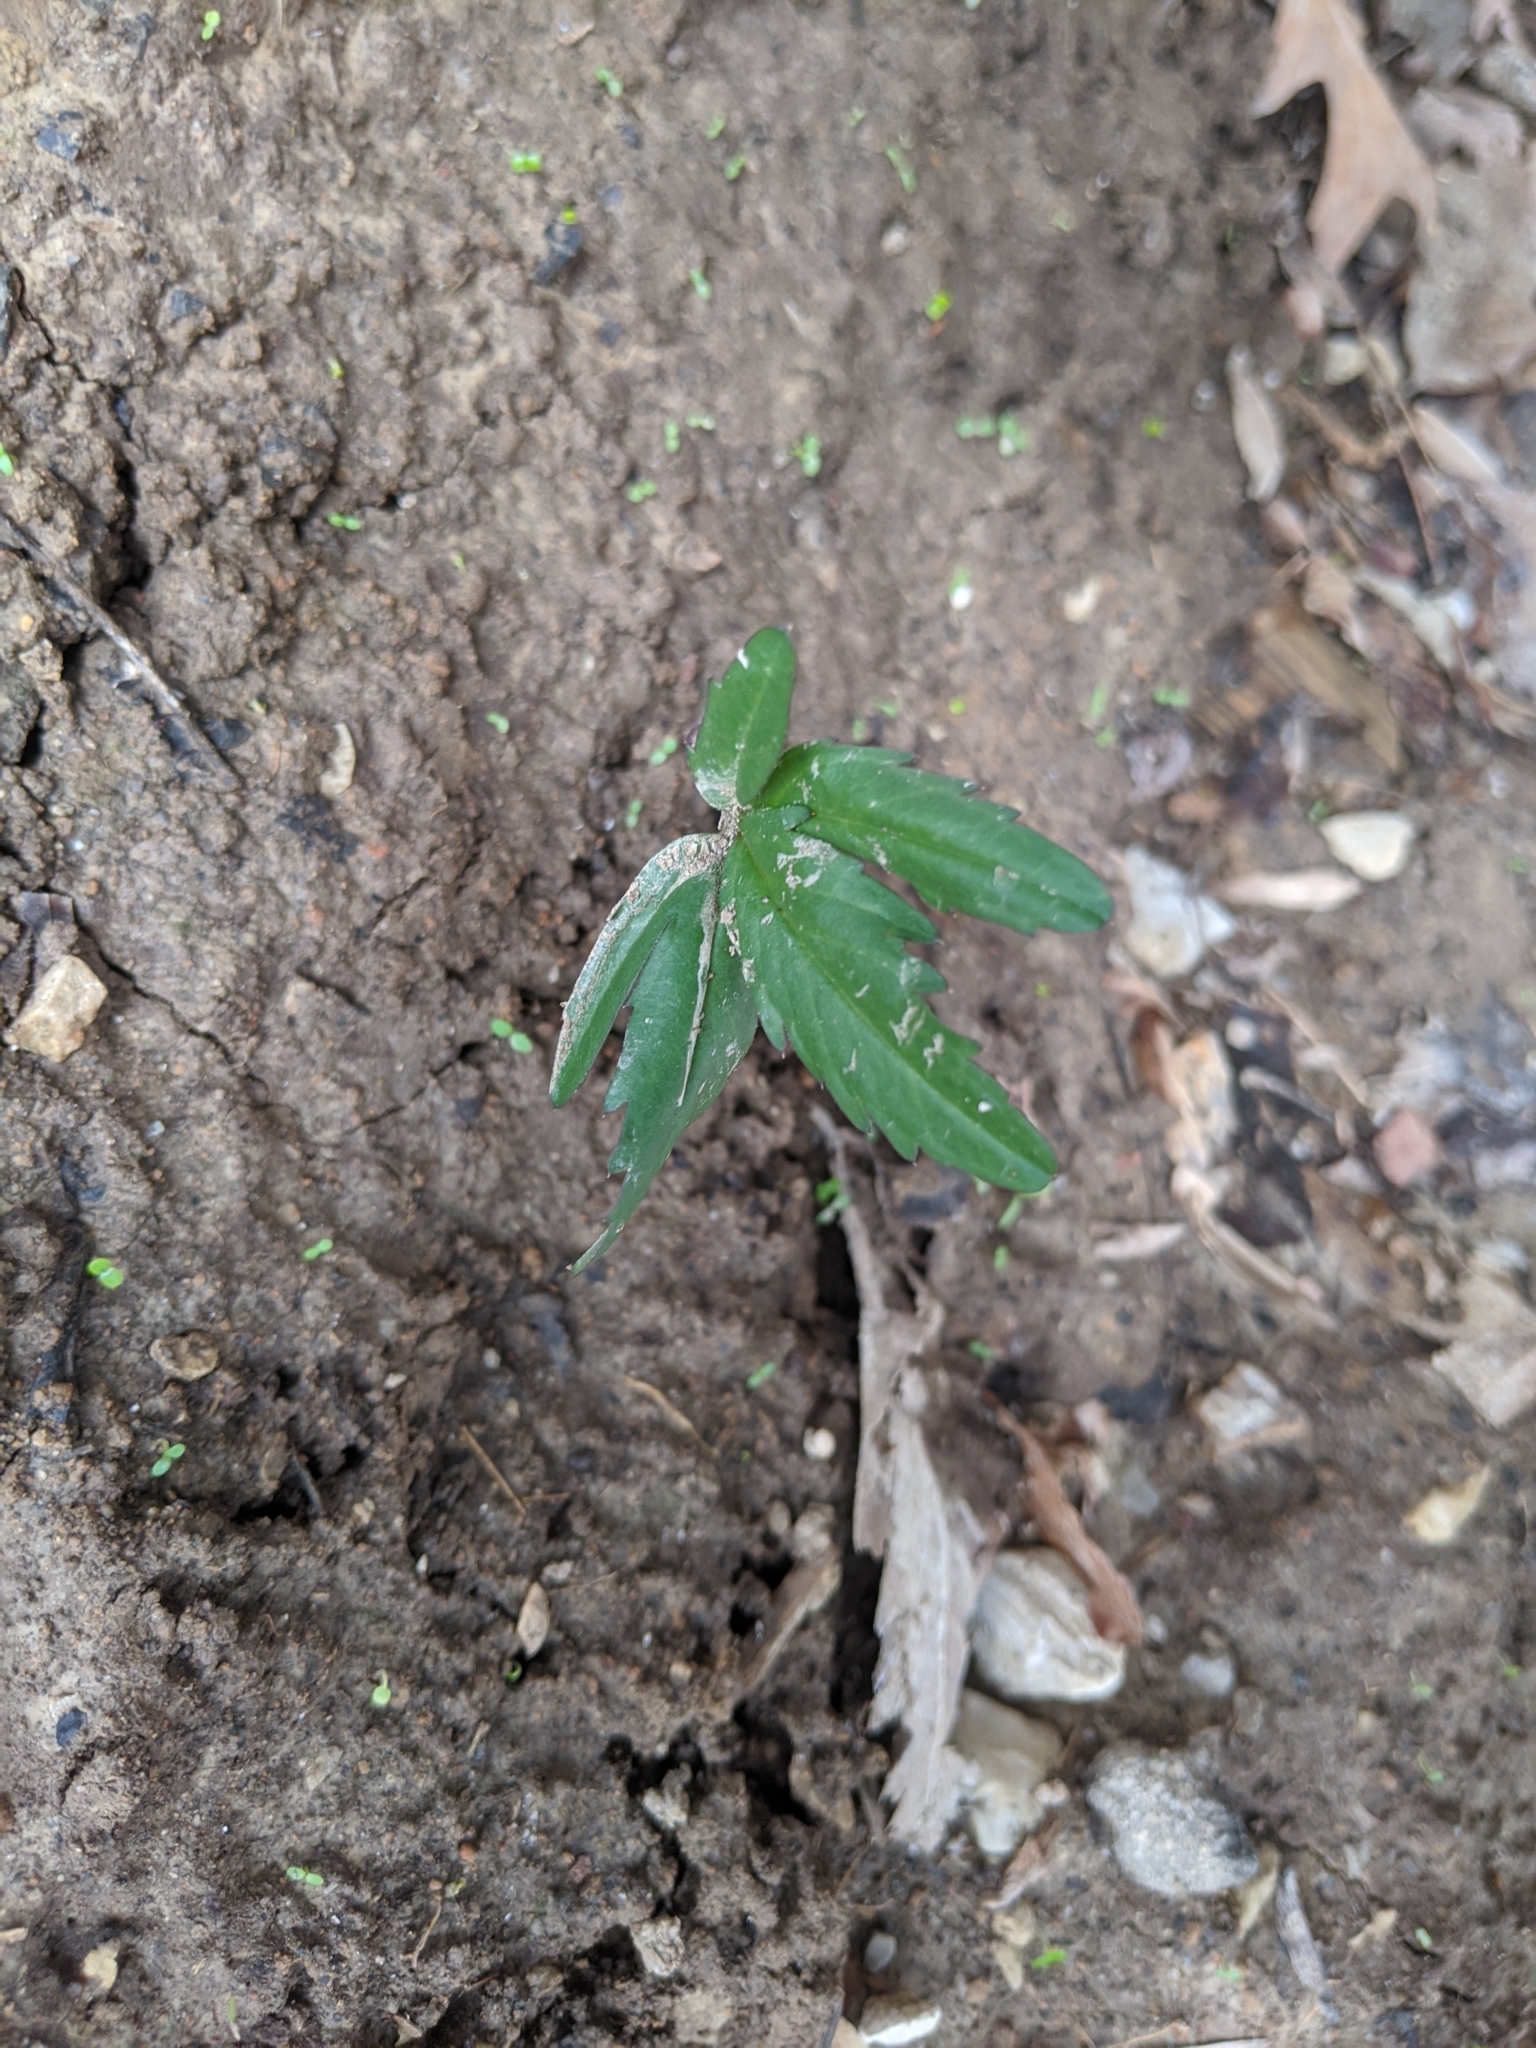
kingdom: Plantae
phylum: Tracheophyta
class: Magnoliopsida
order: Brassicales
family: Brassicaceae
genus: Cardamine
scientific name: Cardamine concatenata
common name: Cut-leaf toothcup
